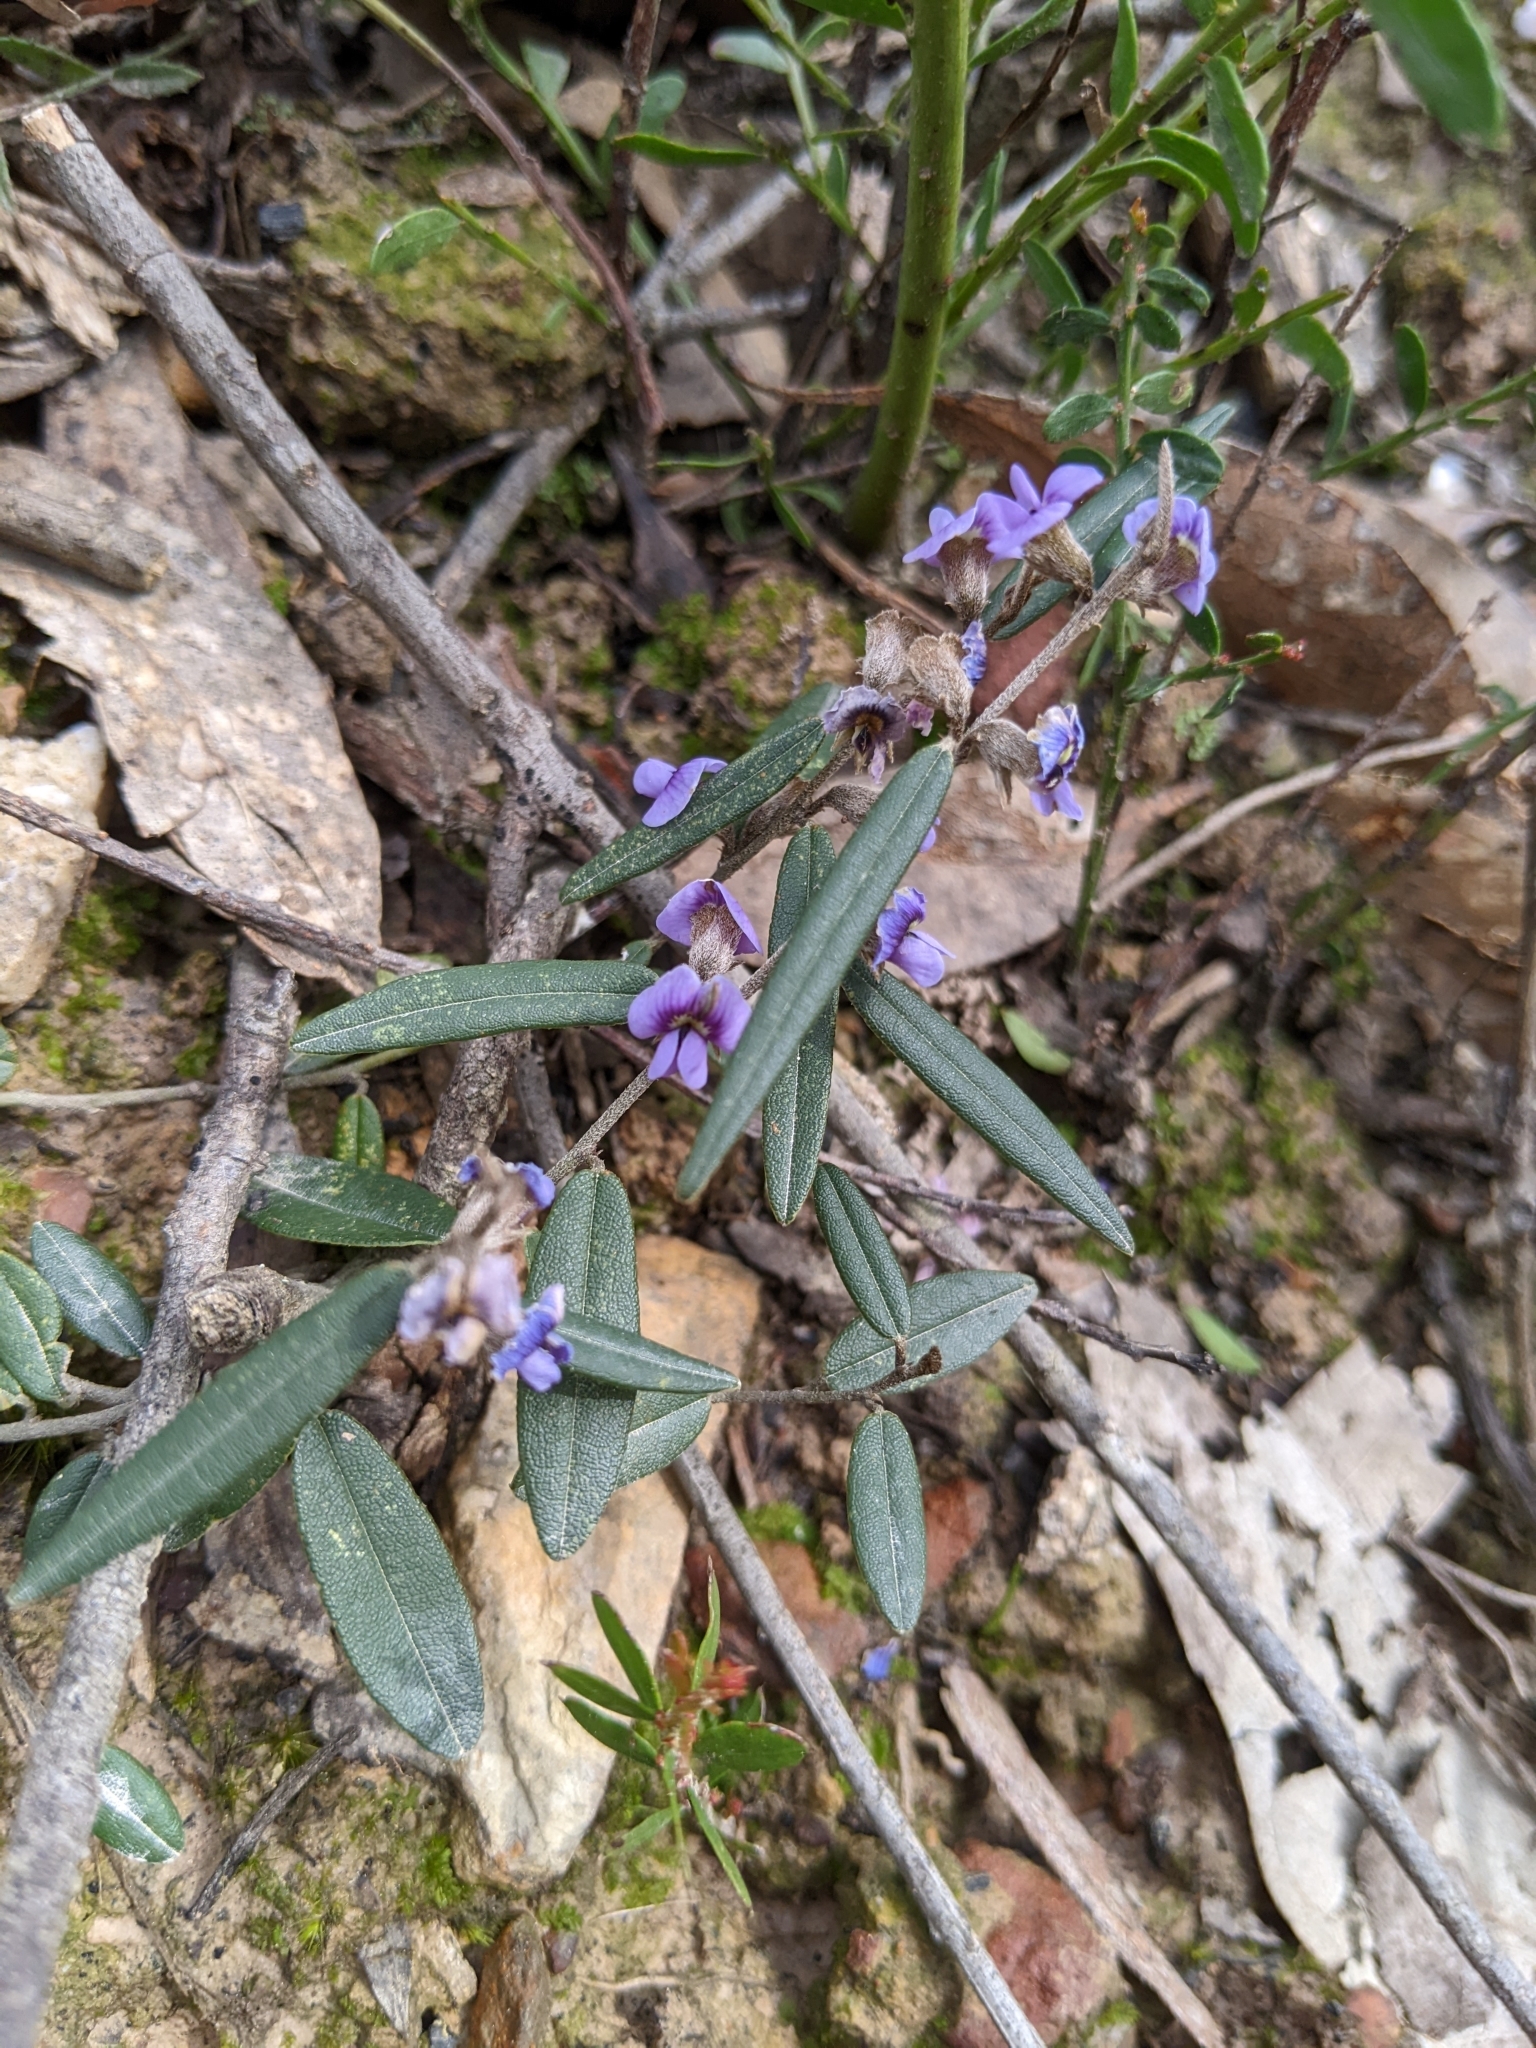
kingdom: Plantae
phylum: Tracheophyta
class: Magnoliopsida
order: Fabales
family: Fabaceae
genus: Hovea
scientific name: Hovea heterophylla
